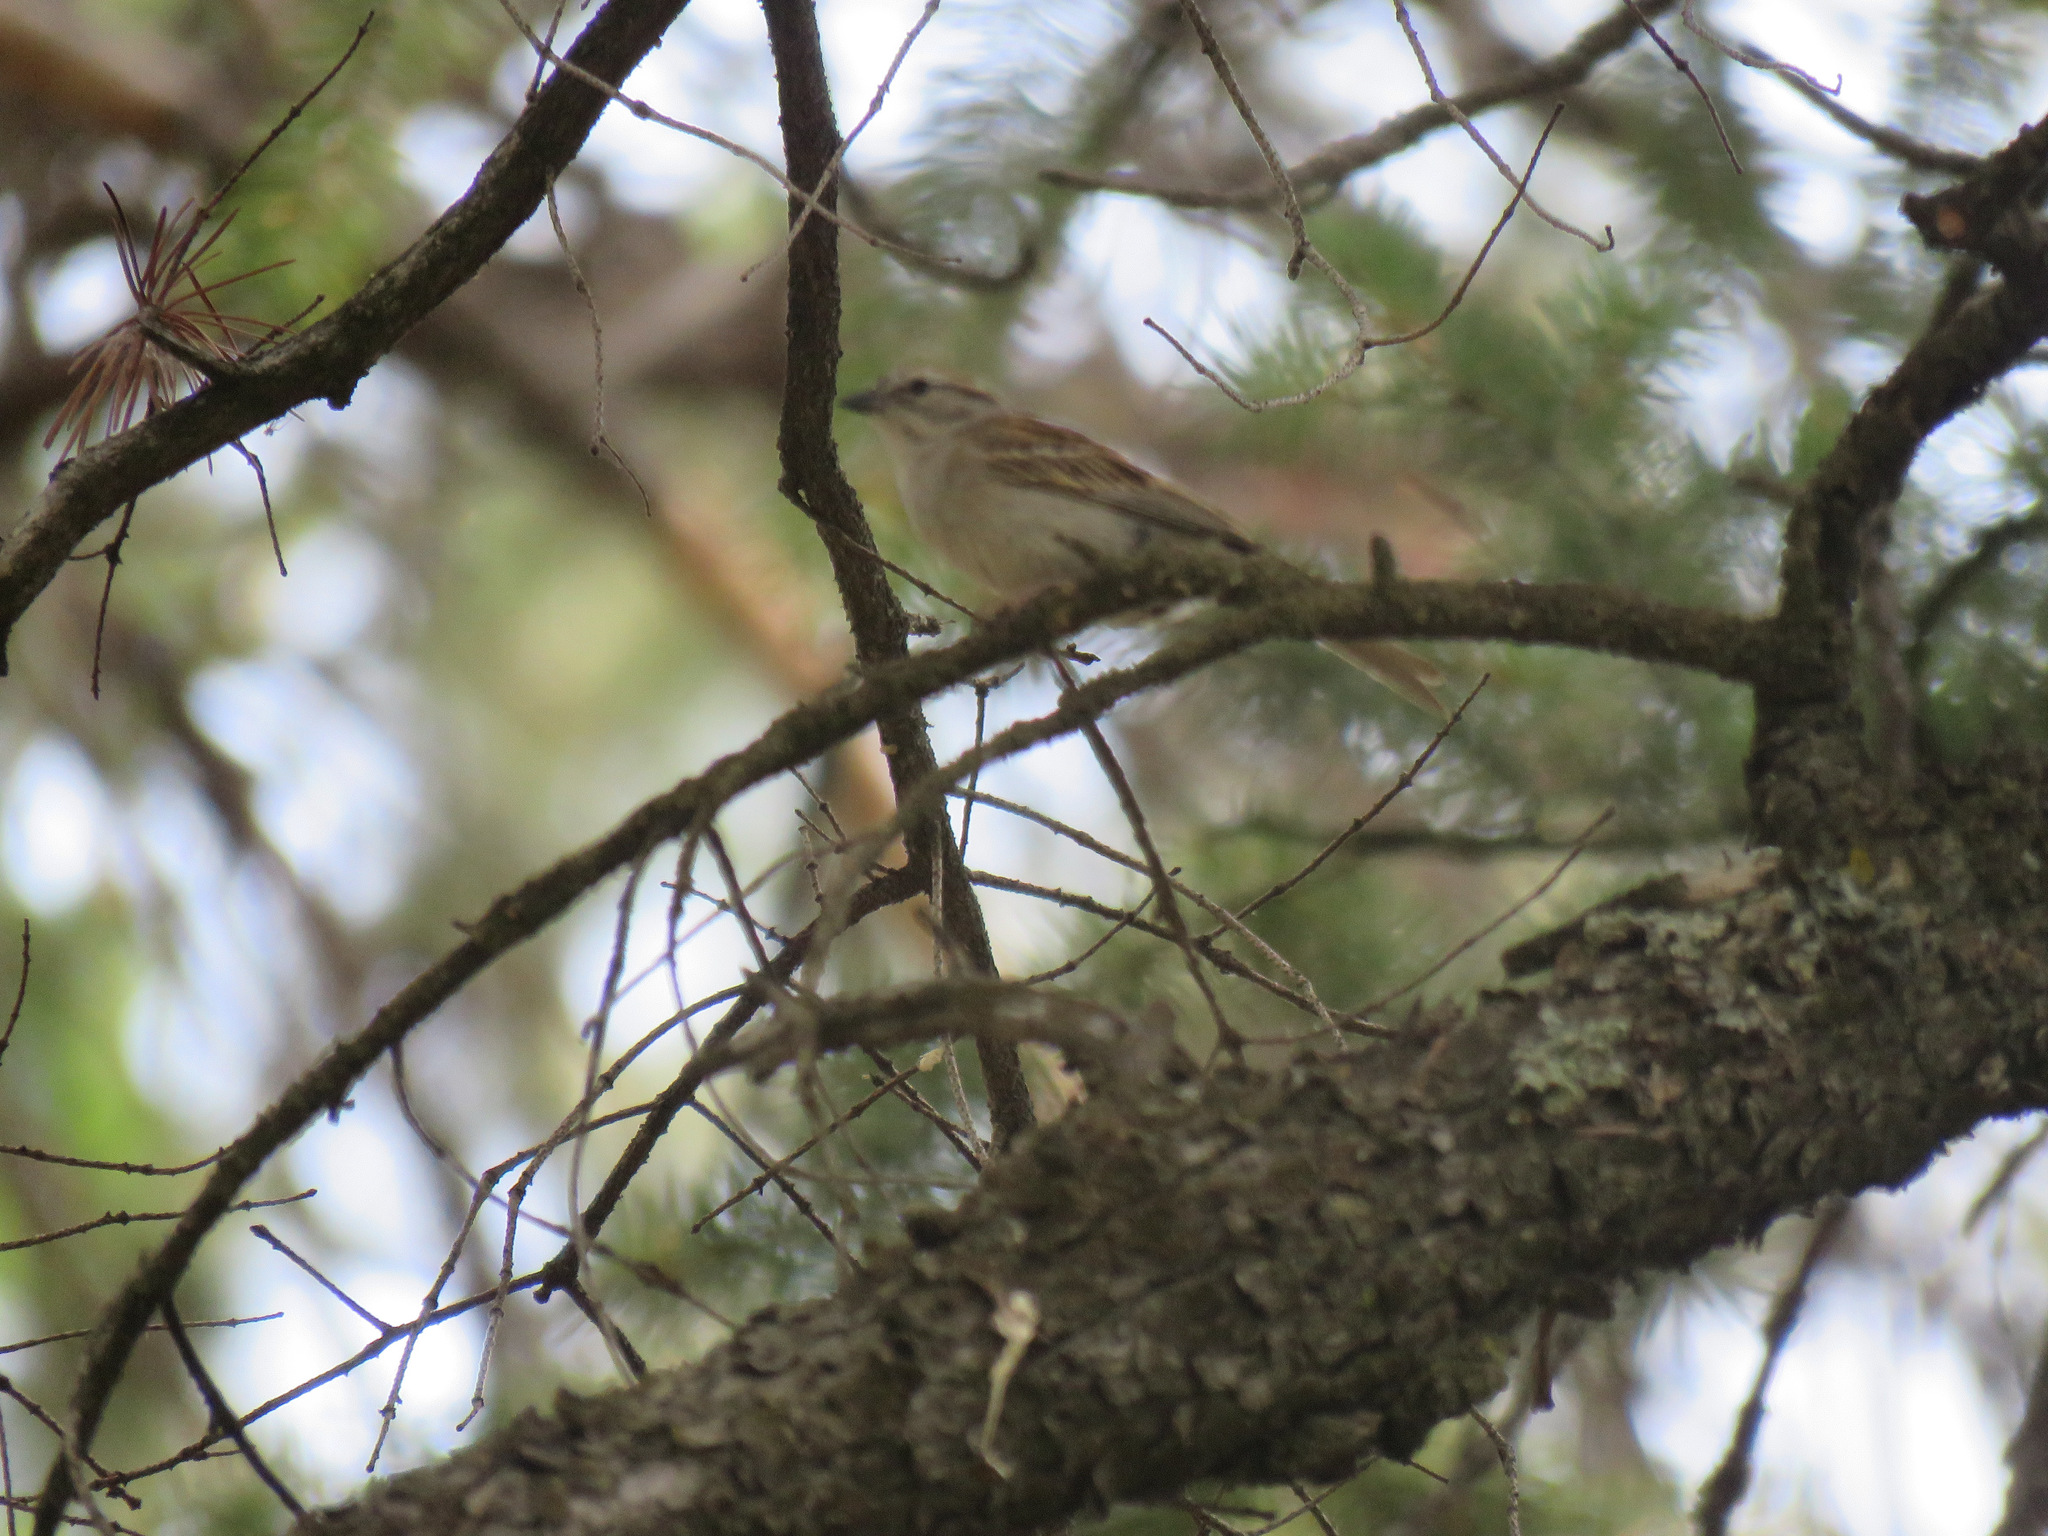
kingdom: Animalia
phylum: Chordata
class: Aves
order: Passeriformes
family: Passerellidae
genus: Spizella
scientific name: Spizella passerina
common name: Chipping sparrow
